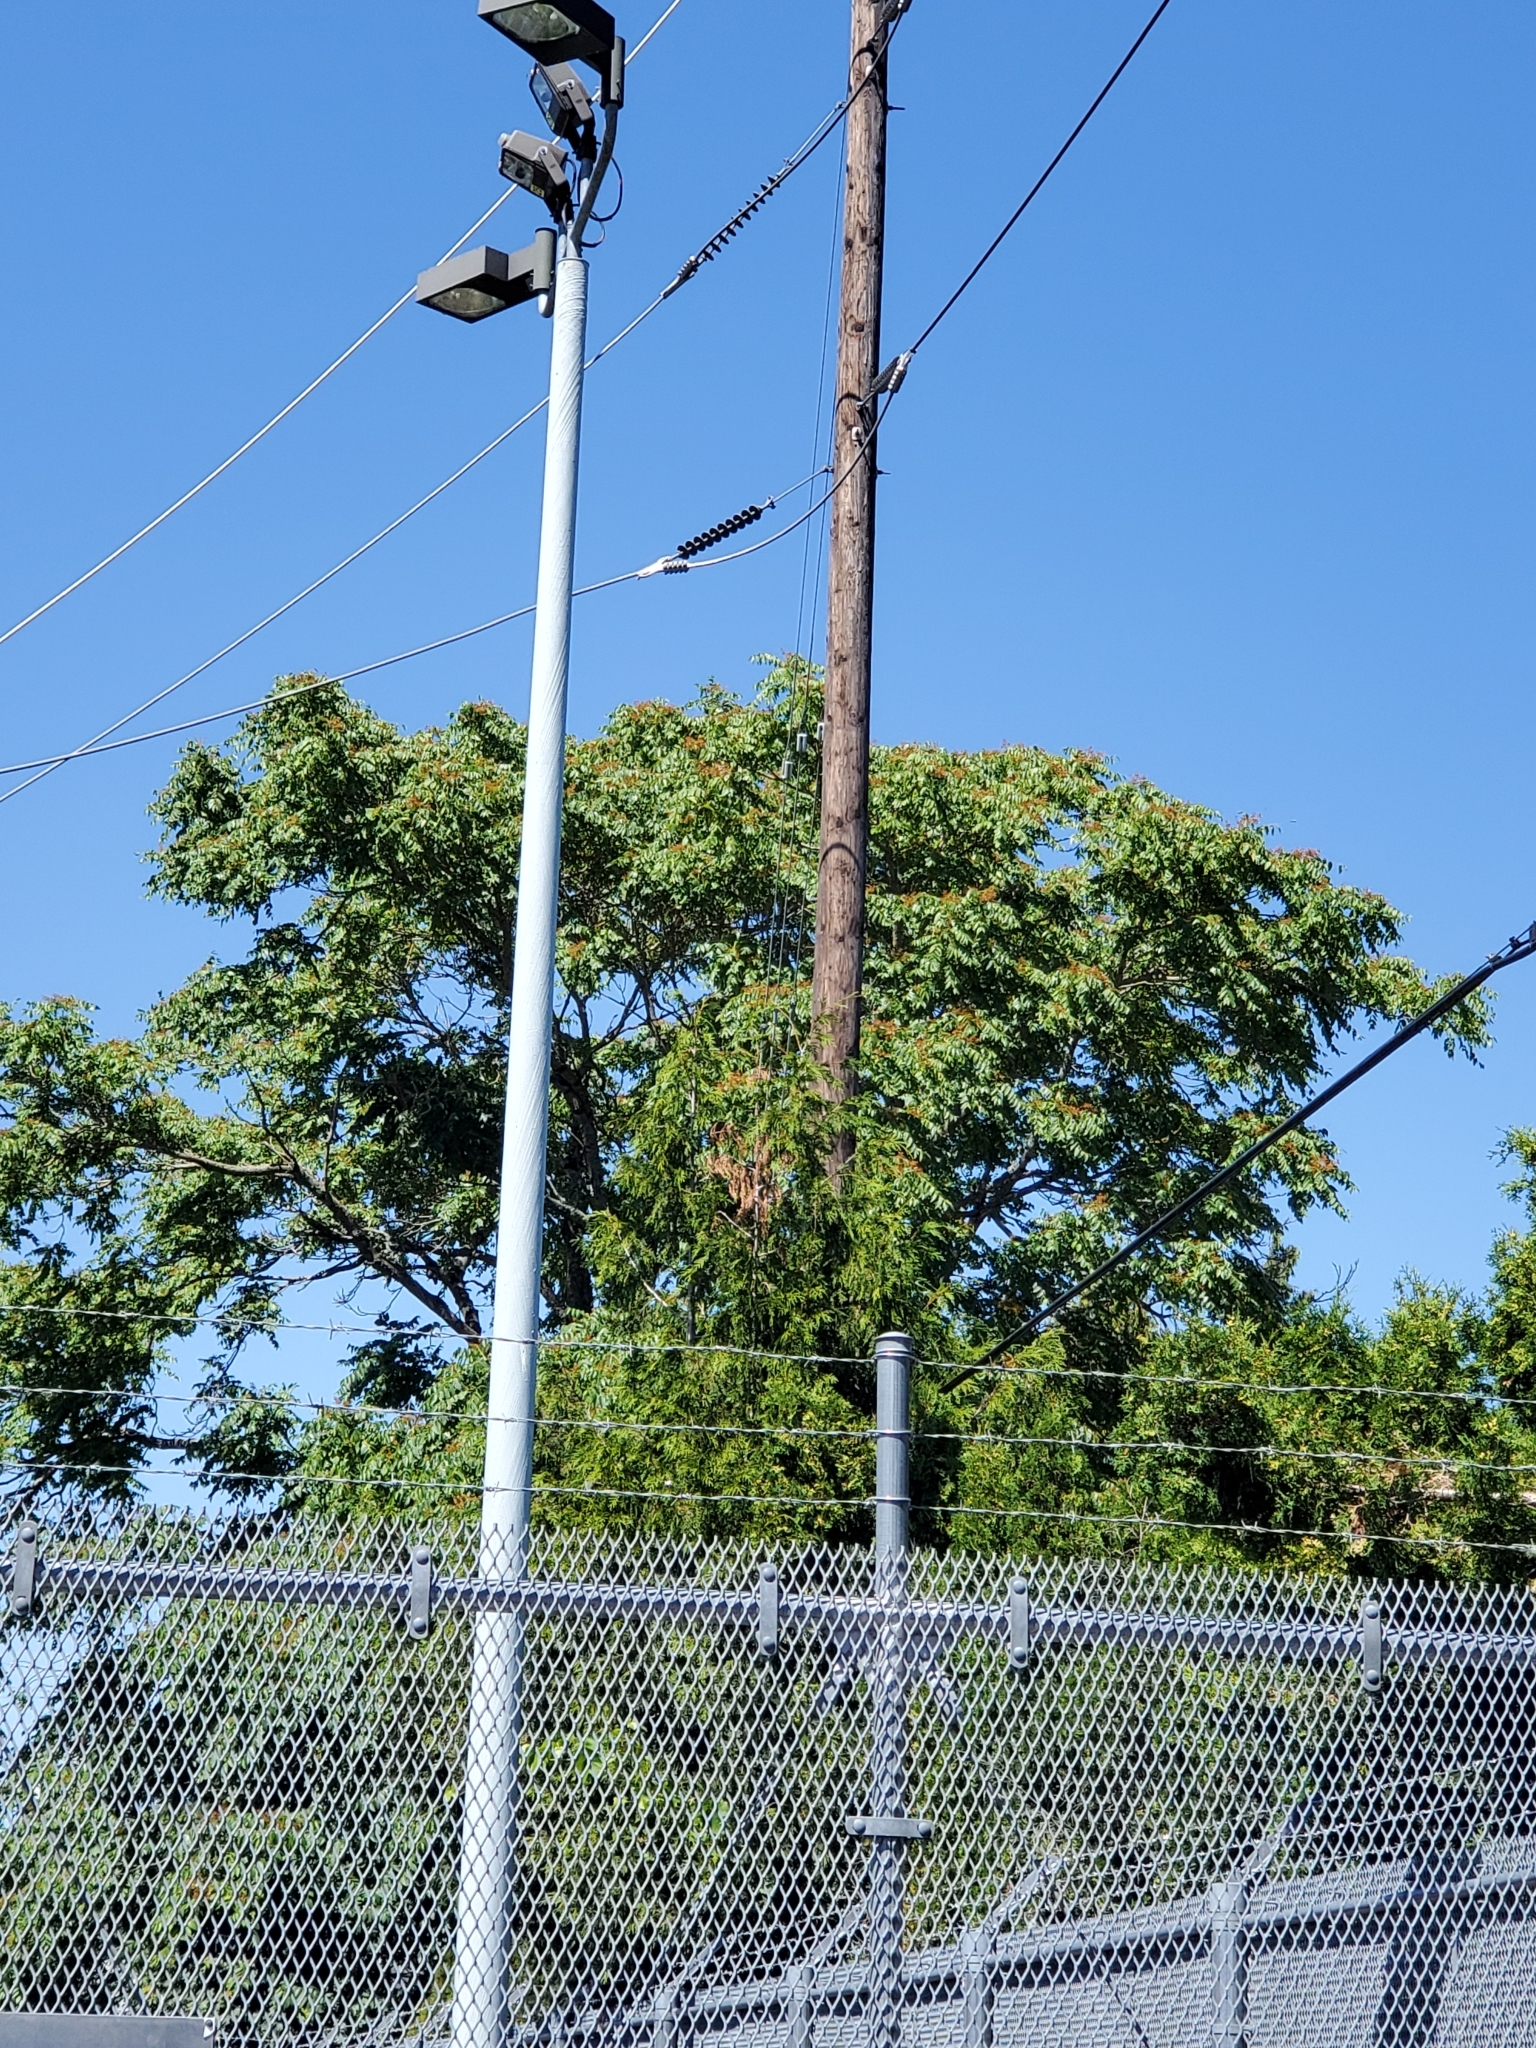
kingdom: Plantae
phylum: Tracheophyta
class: Magnoliopsida
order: Sapindales
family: Simaroubaceae
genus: Ailanthus
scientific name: Ailanthus altissima
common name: Tree-of-heaven
